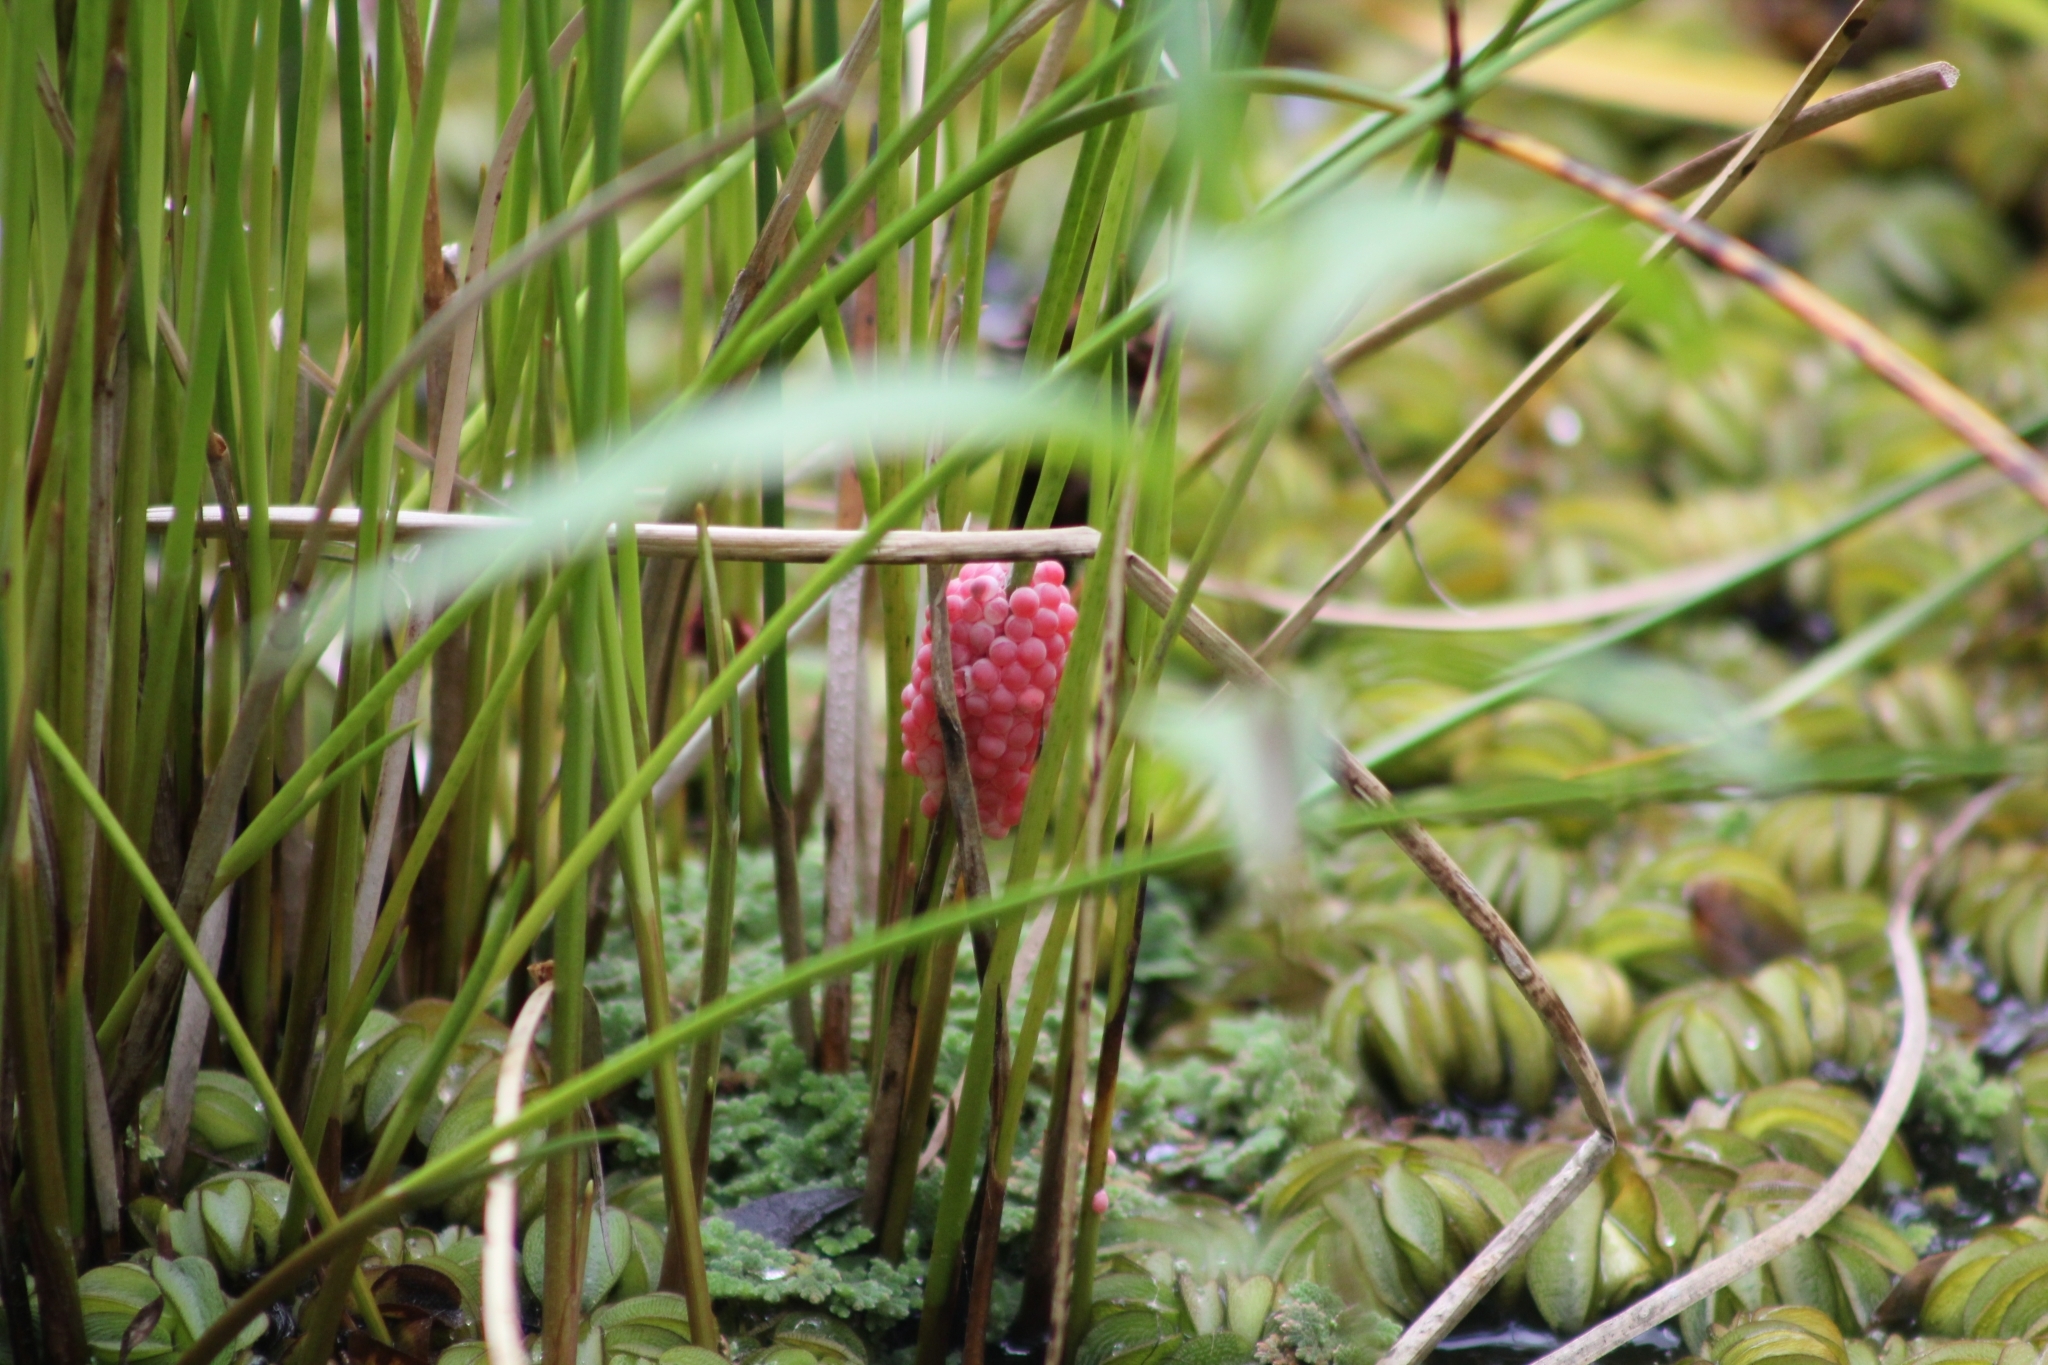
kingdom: Animalia
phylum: Mollusca
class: Gastropoda
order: Architaenioglossa
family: Ampullariidae
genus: Pomacea
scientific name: Pomacea canaliculata
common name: Channeled applesnail
